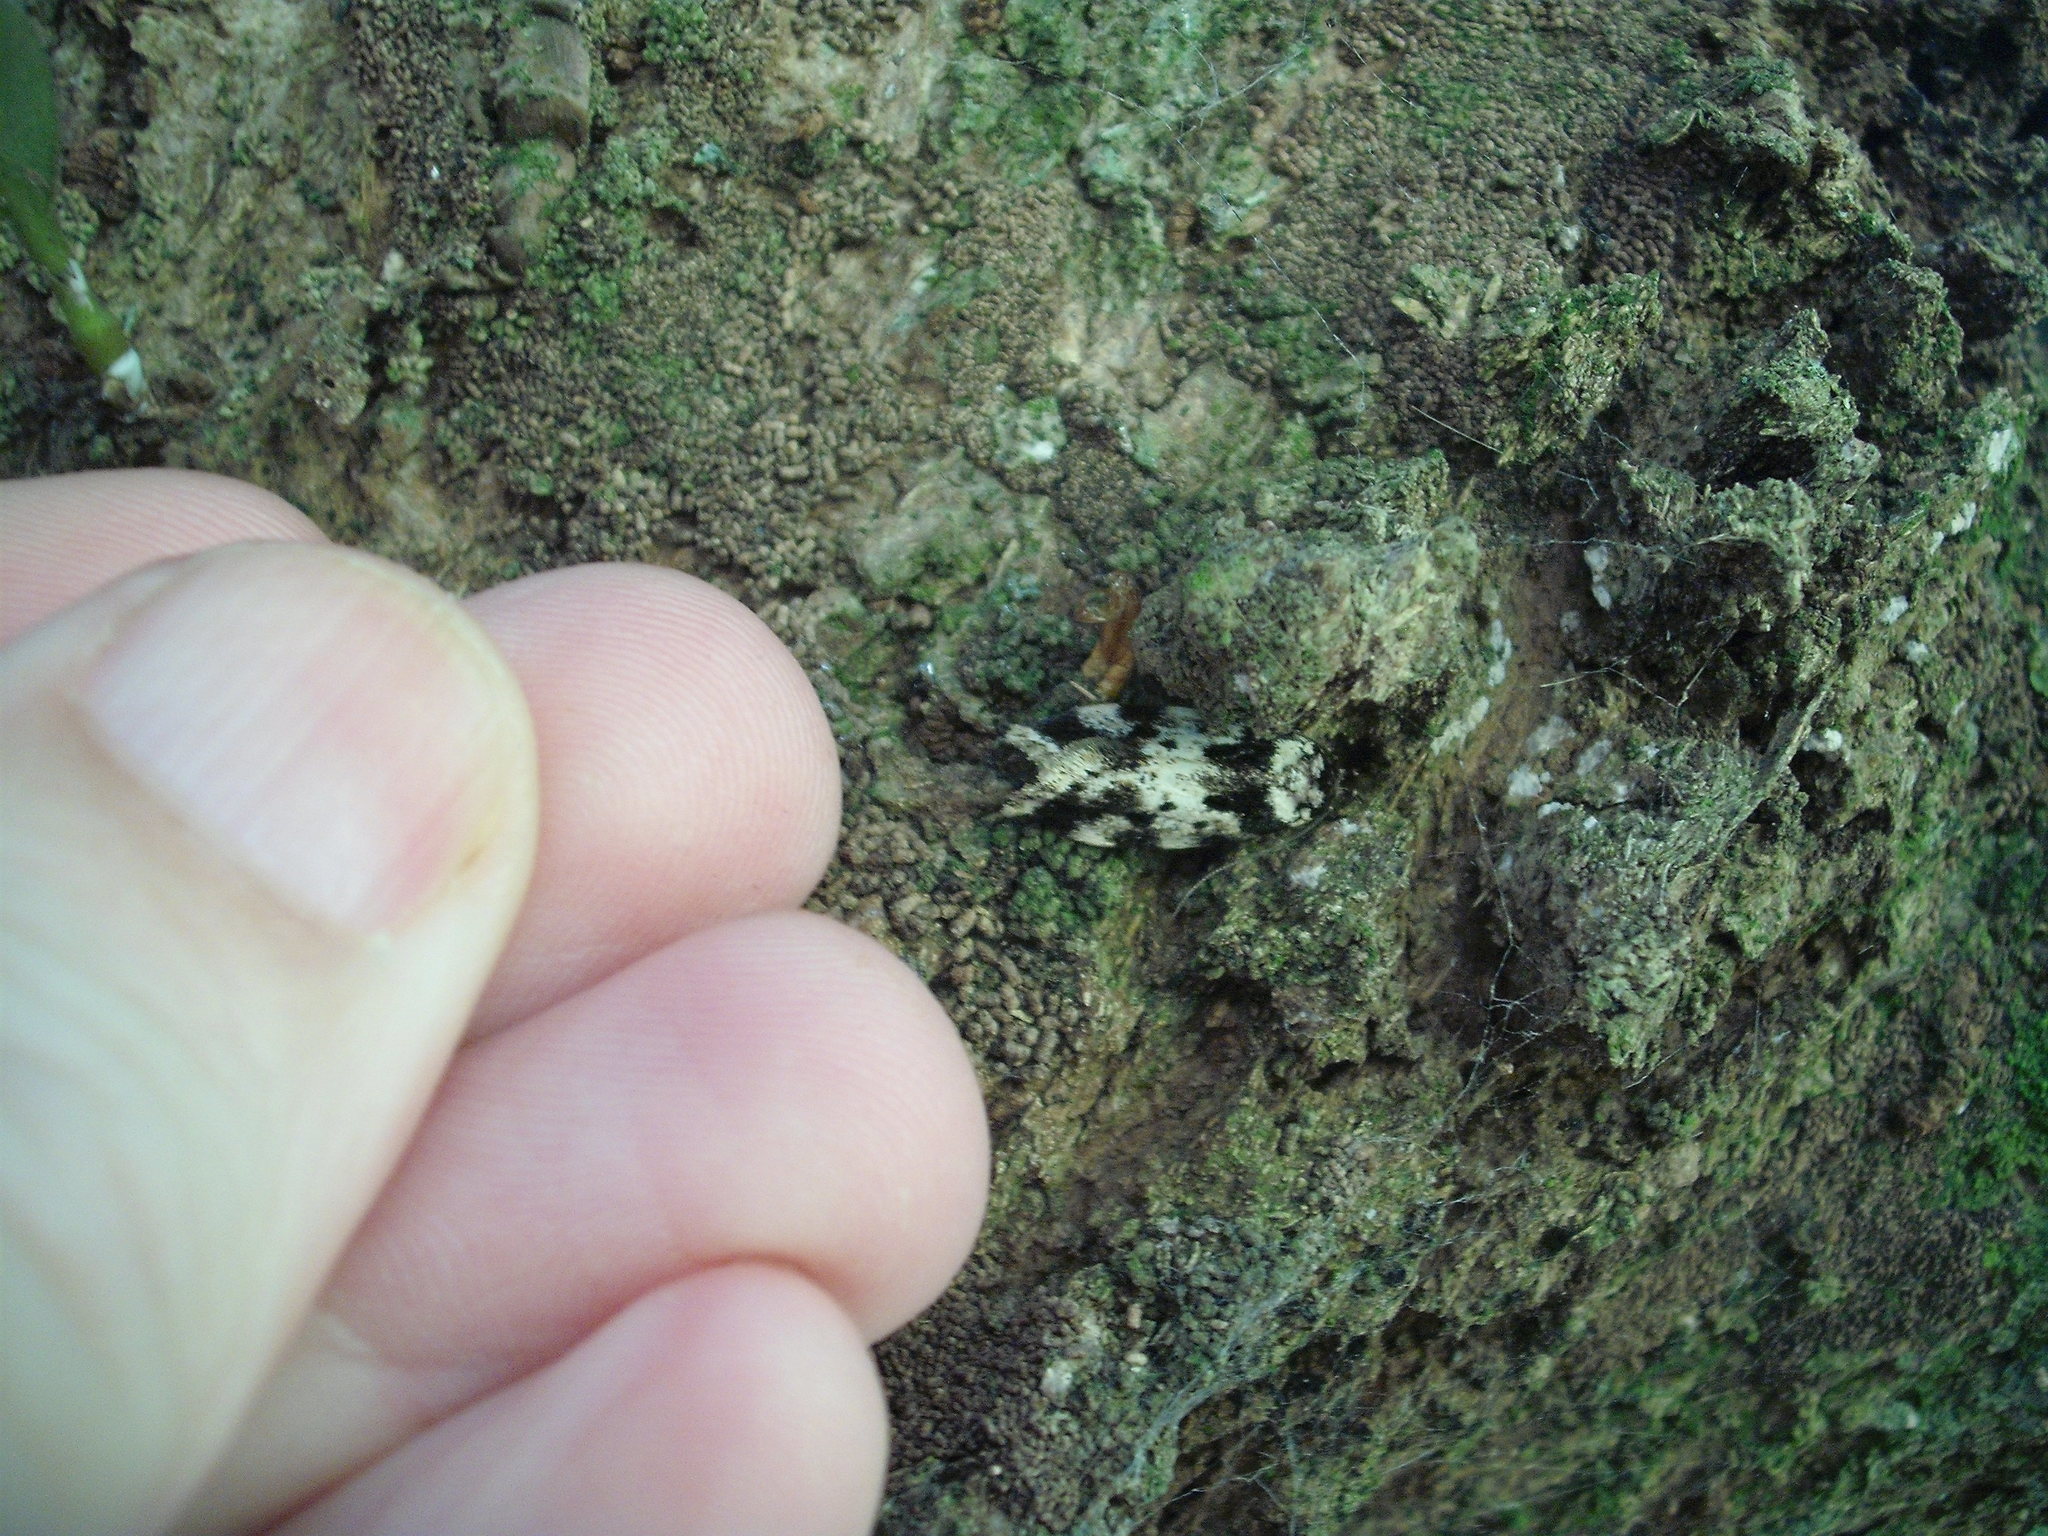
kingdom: Animalia
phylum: Arthropoda
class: Insecta
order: Lepidoptera
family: Oecophoridae
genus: Barea
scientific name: Barea confusella
